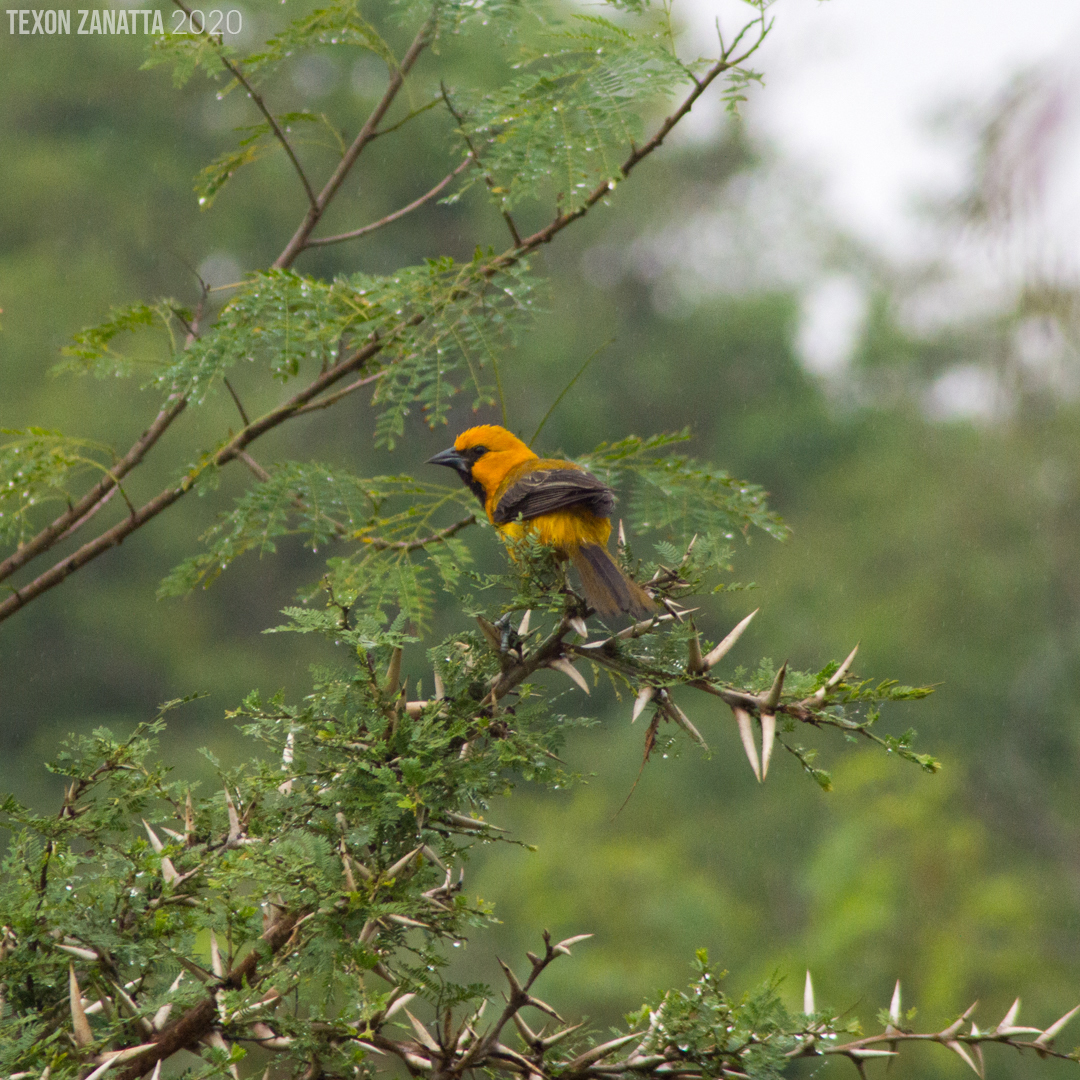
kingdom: Animalia
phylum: Chordata
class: Aves
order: Passeriformes
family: Icteridae
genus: Icterus
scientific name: Icterus gularis
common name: Altamira oriole
